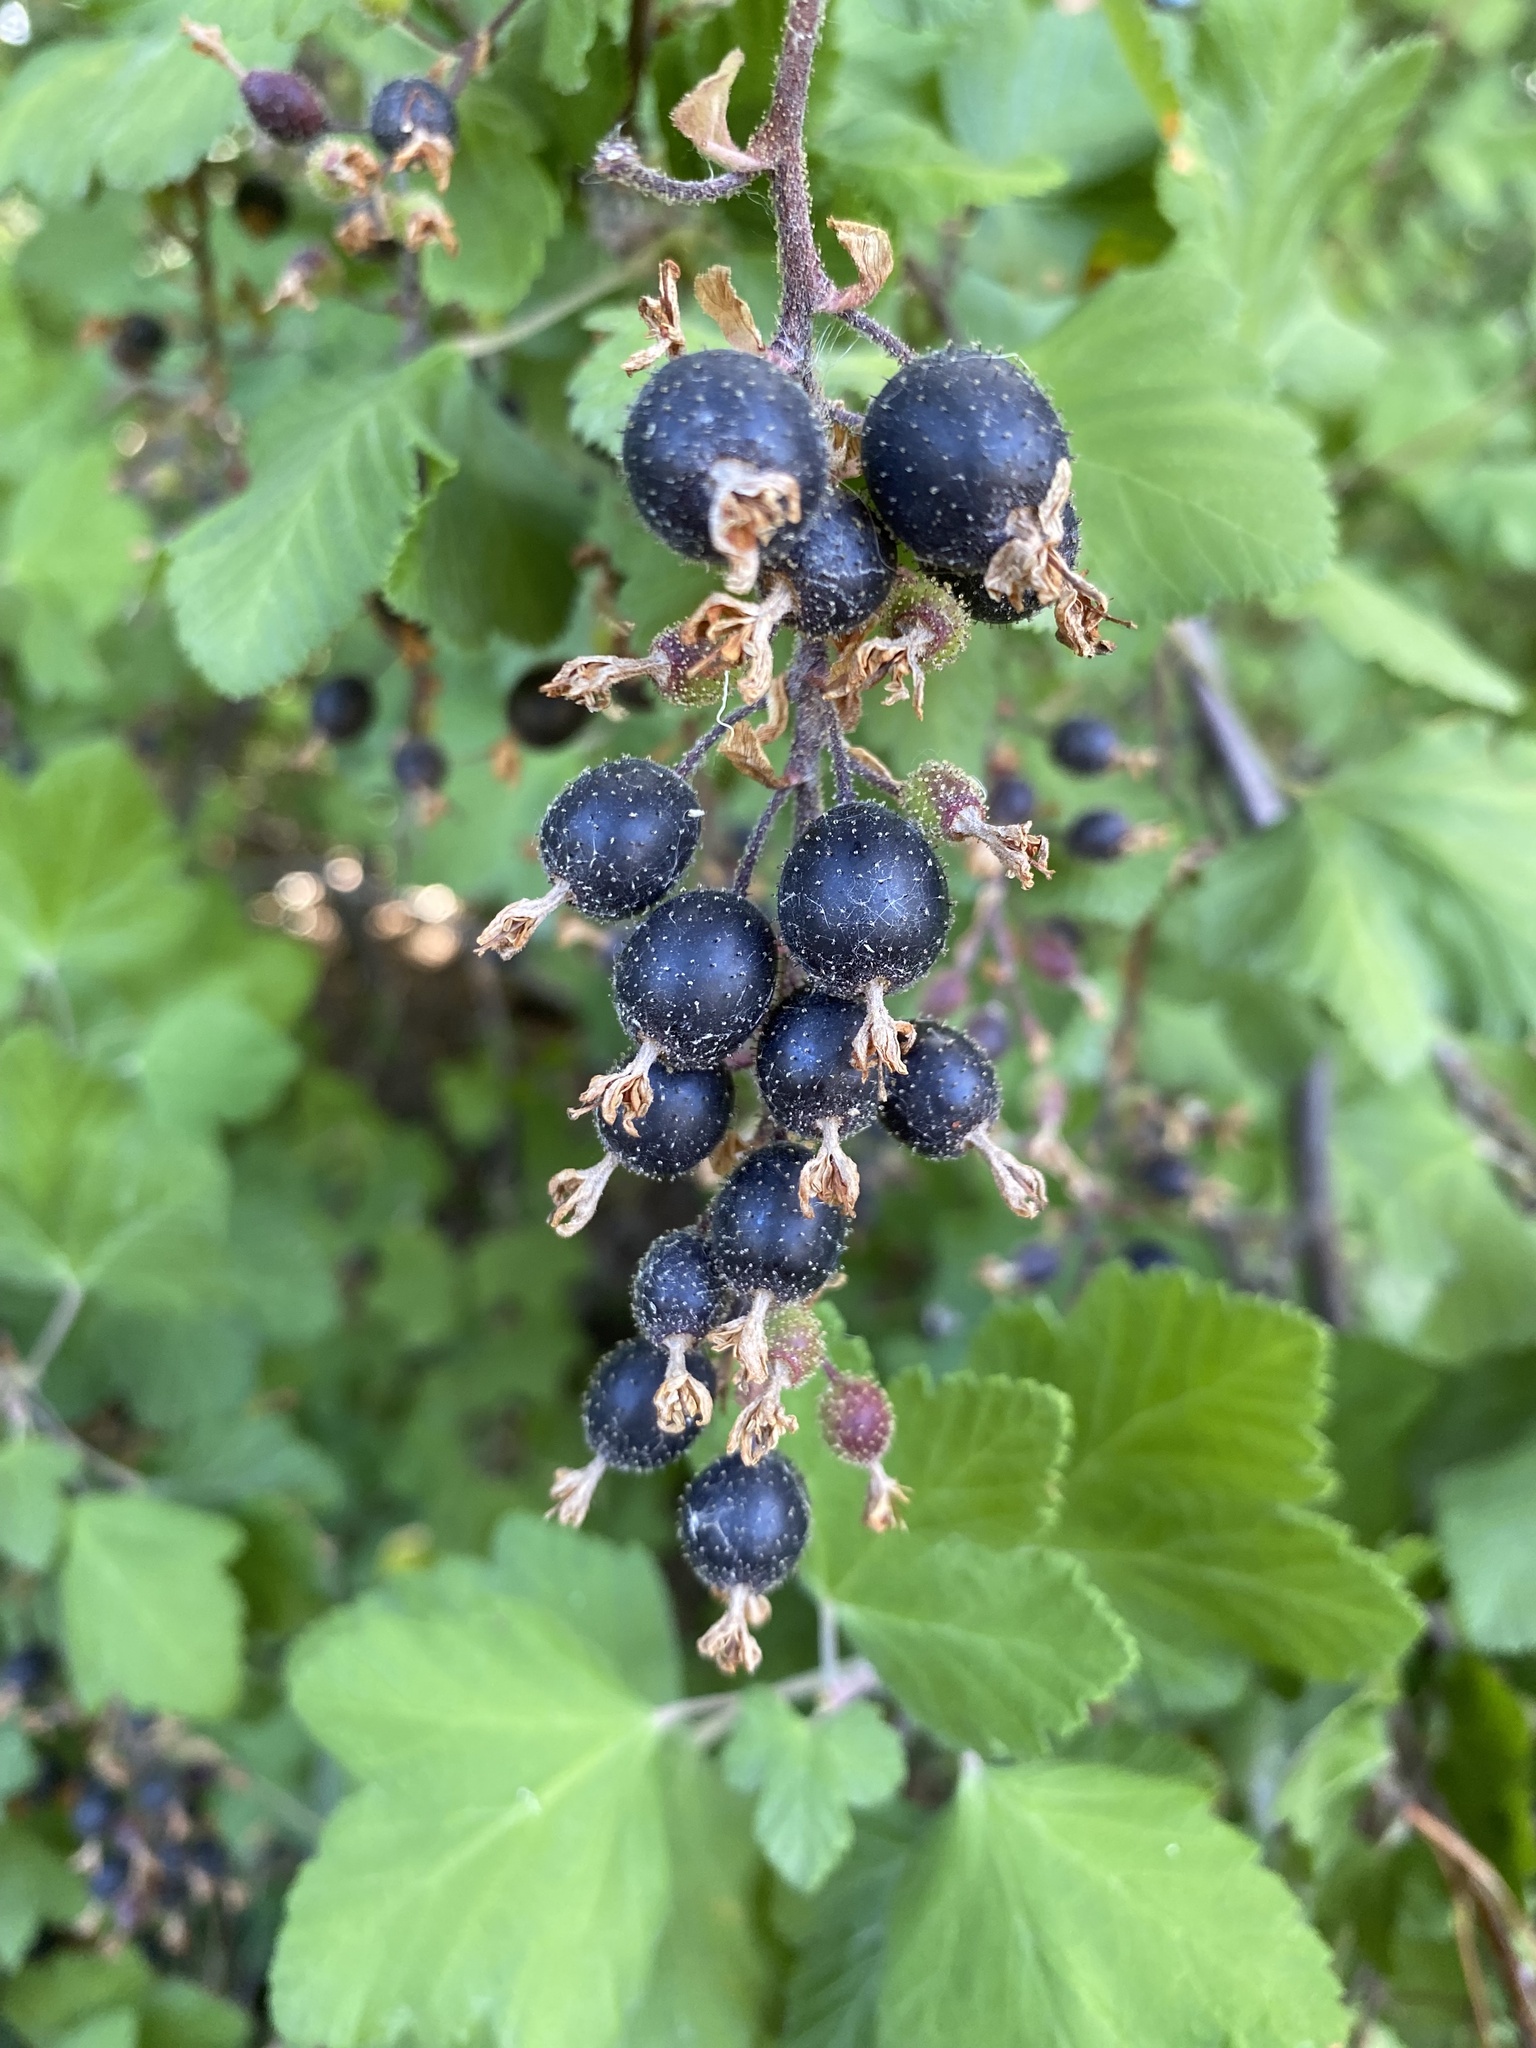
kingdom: Plantae
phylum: Tracheophyta
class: Magnoliopsida
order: Saxifragales
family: Grossulariaceae
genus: Ribes
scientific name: Ribes sanguineum
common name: Flowering currant
